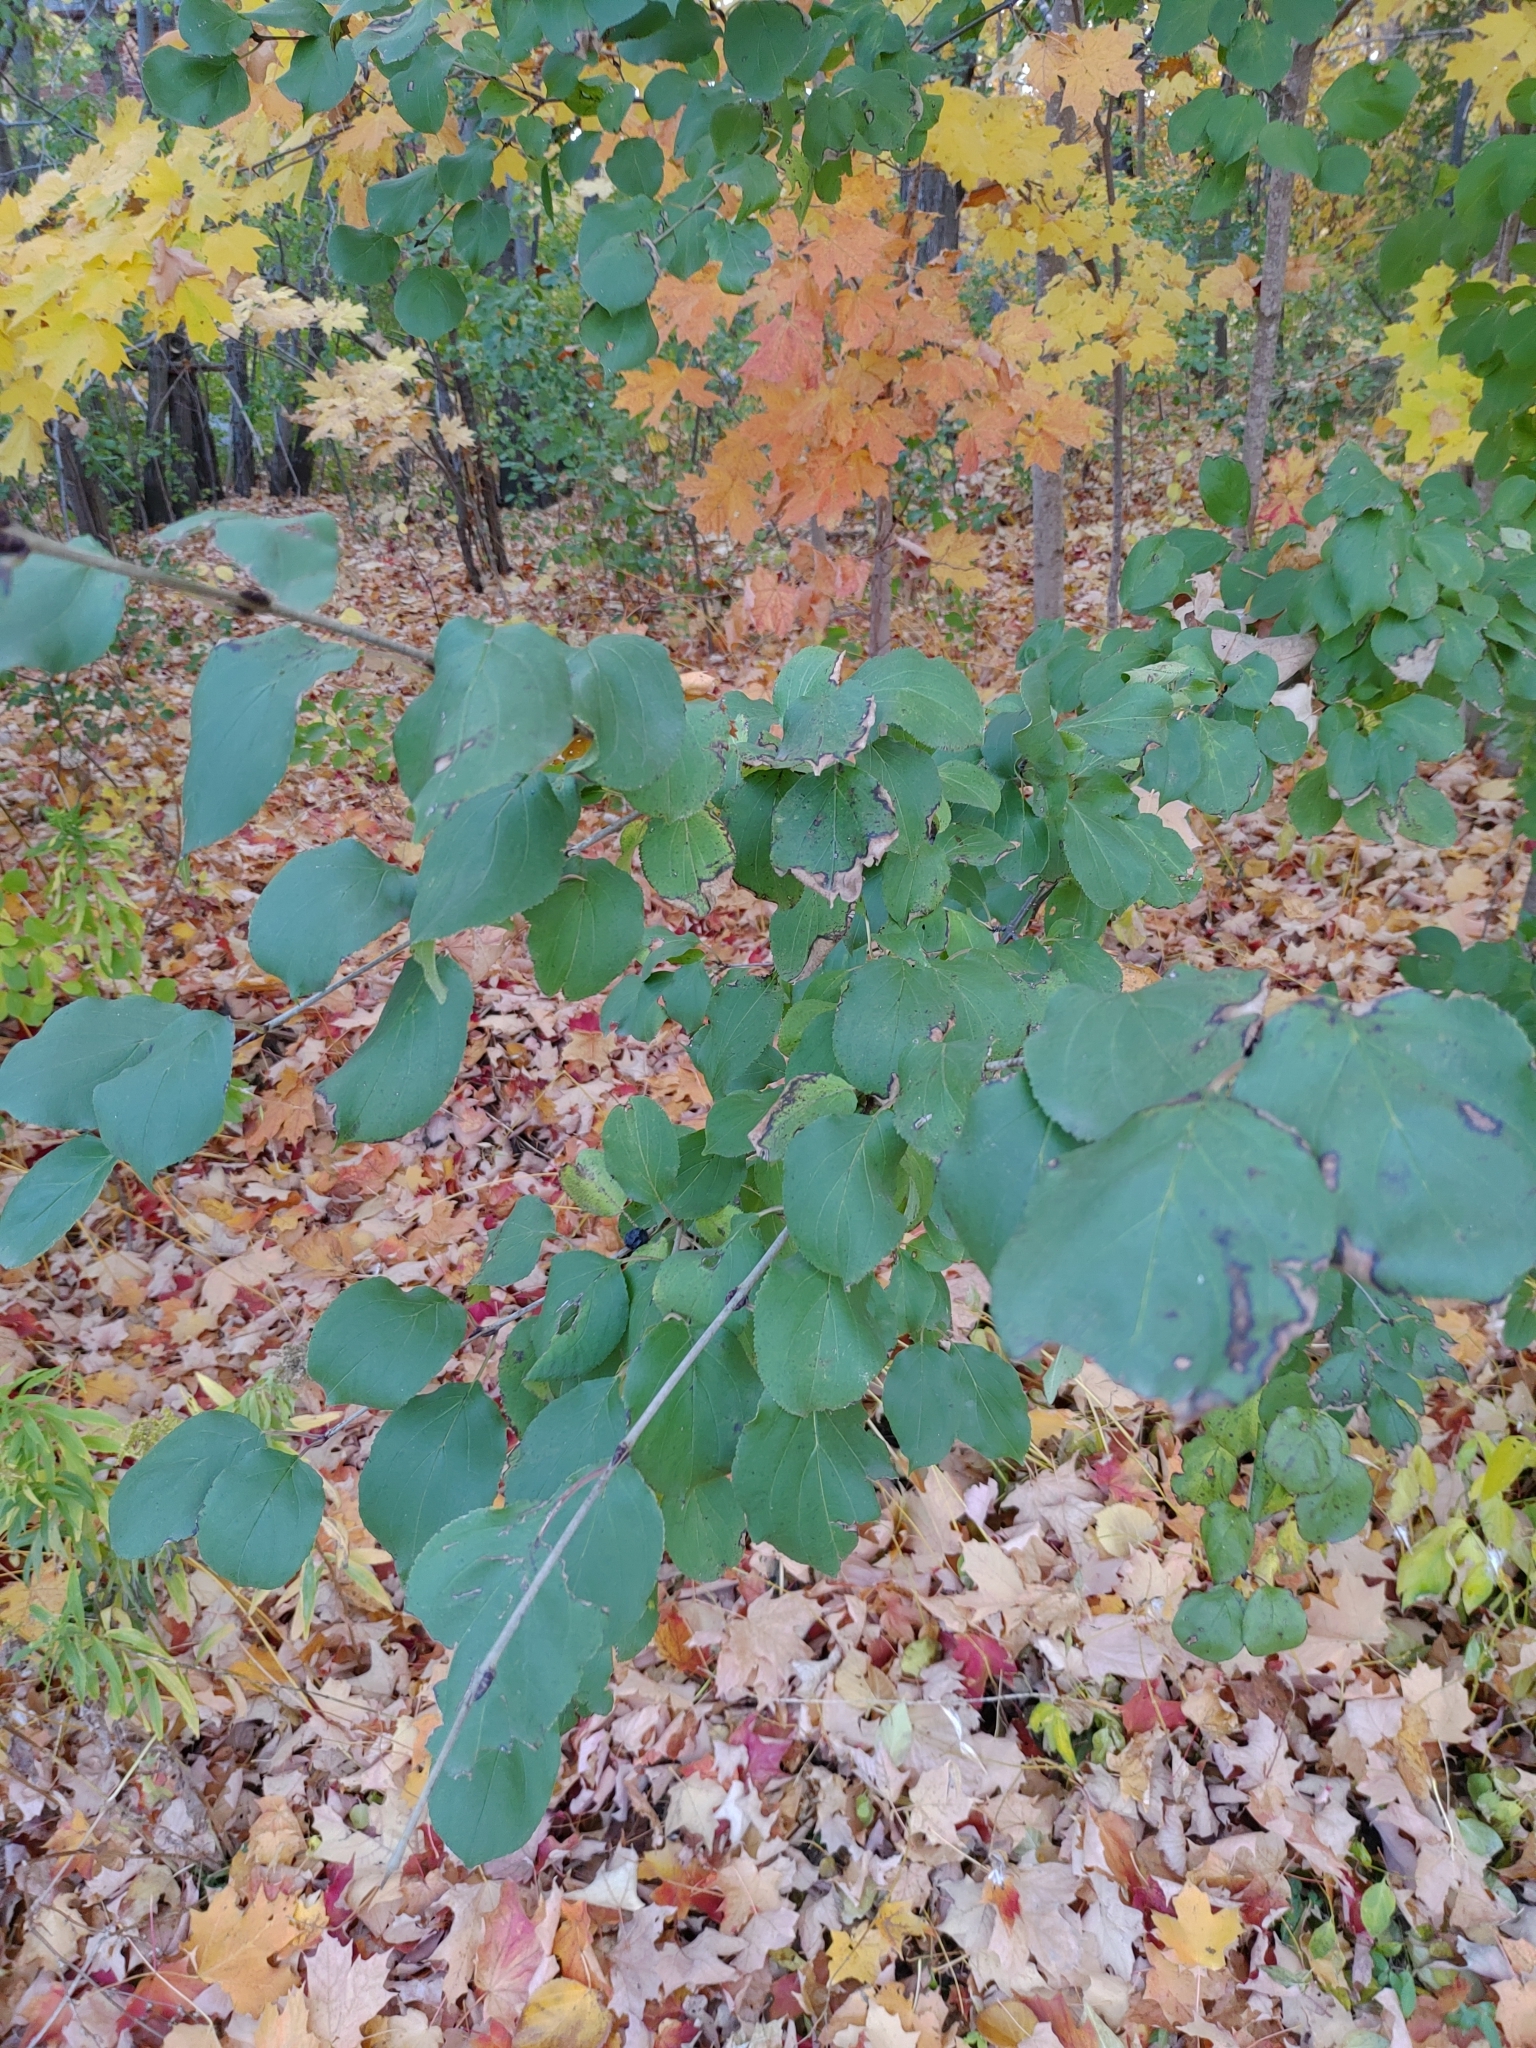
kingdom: Plantae
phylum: Tracheophyta
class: Magnoliopsida
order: Rosales
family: Rhamnaceae
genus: Rhamnus
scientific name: Rhamnus cathartica
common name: Common buckthorn
